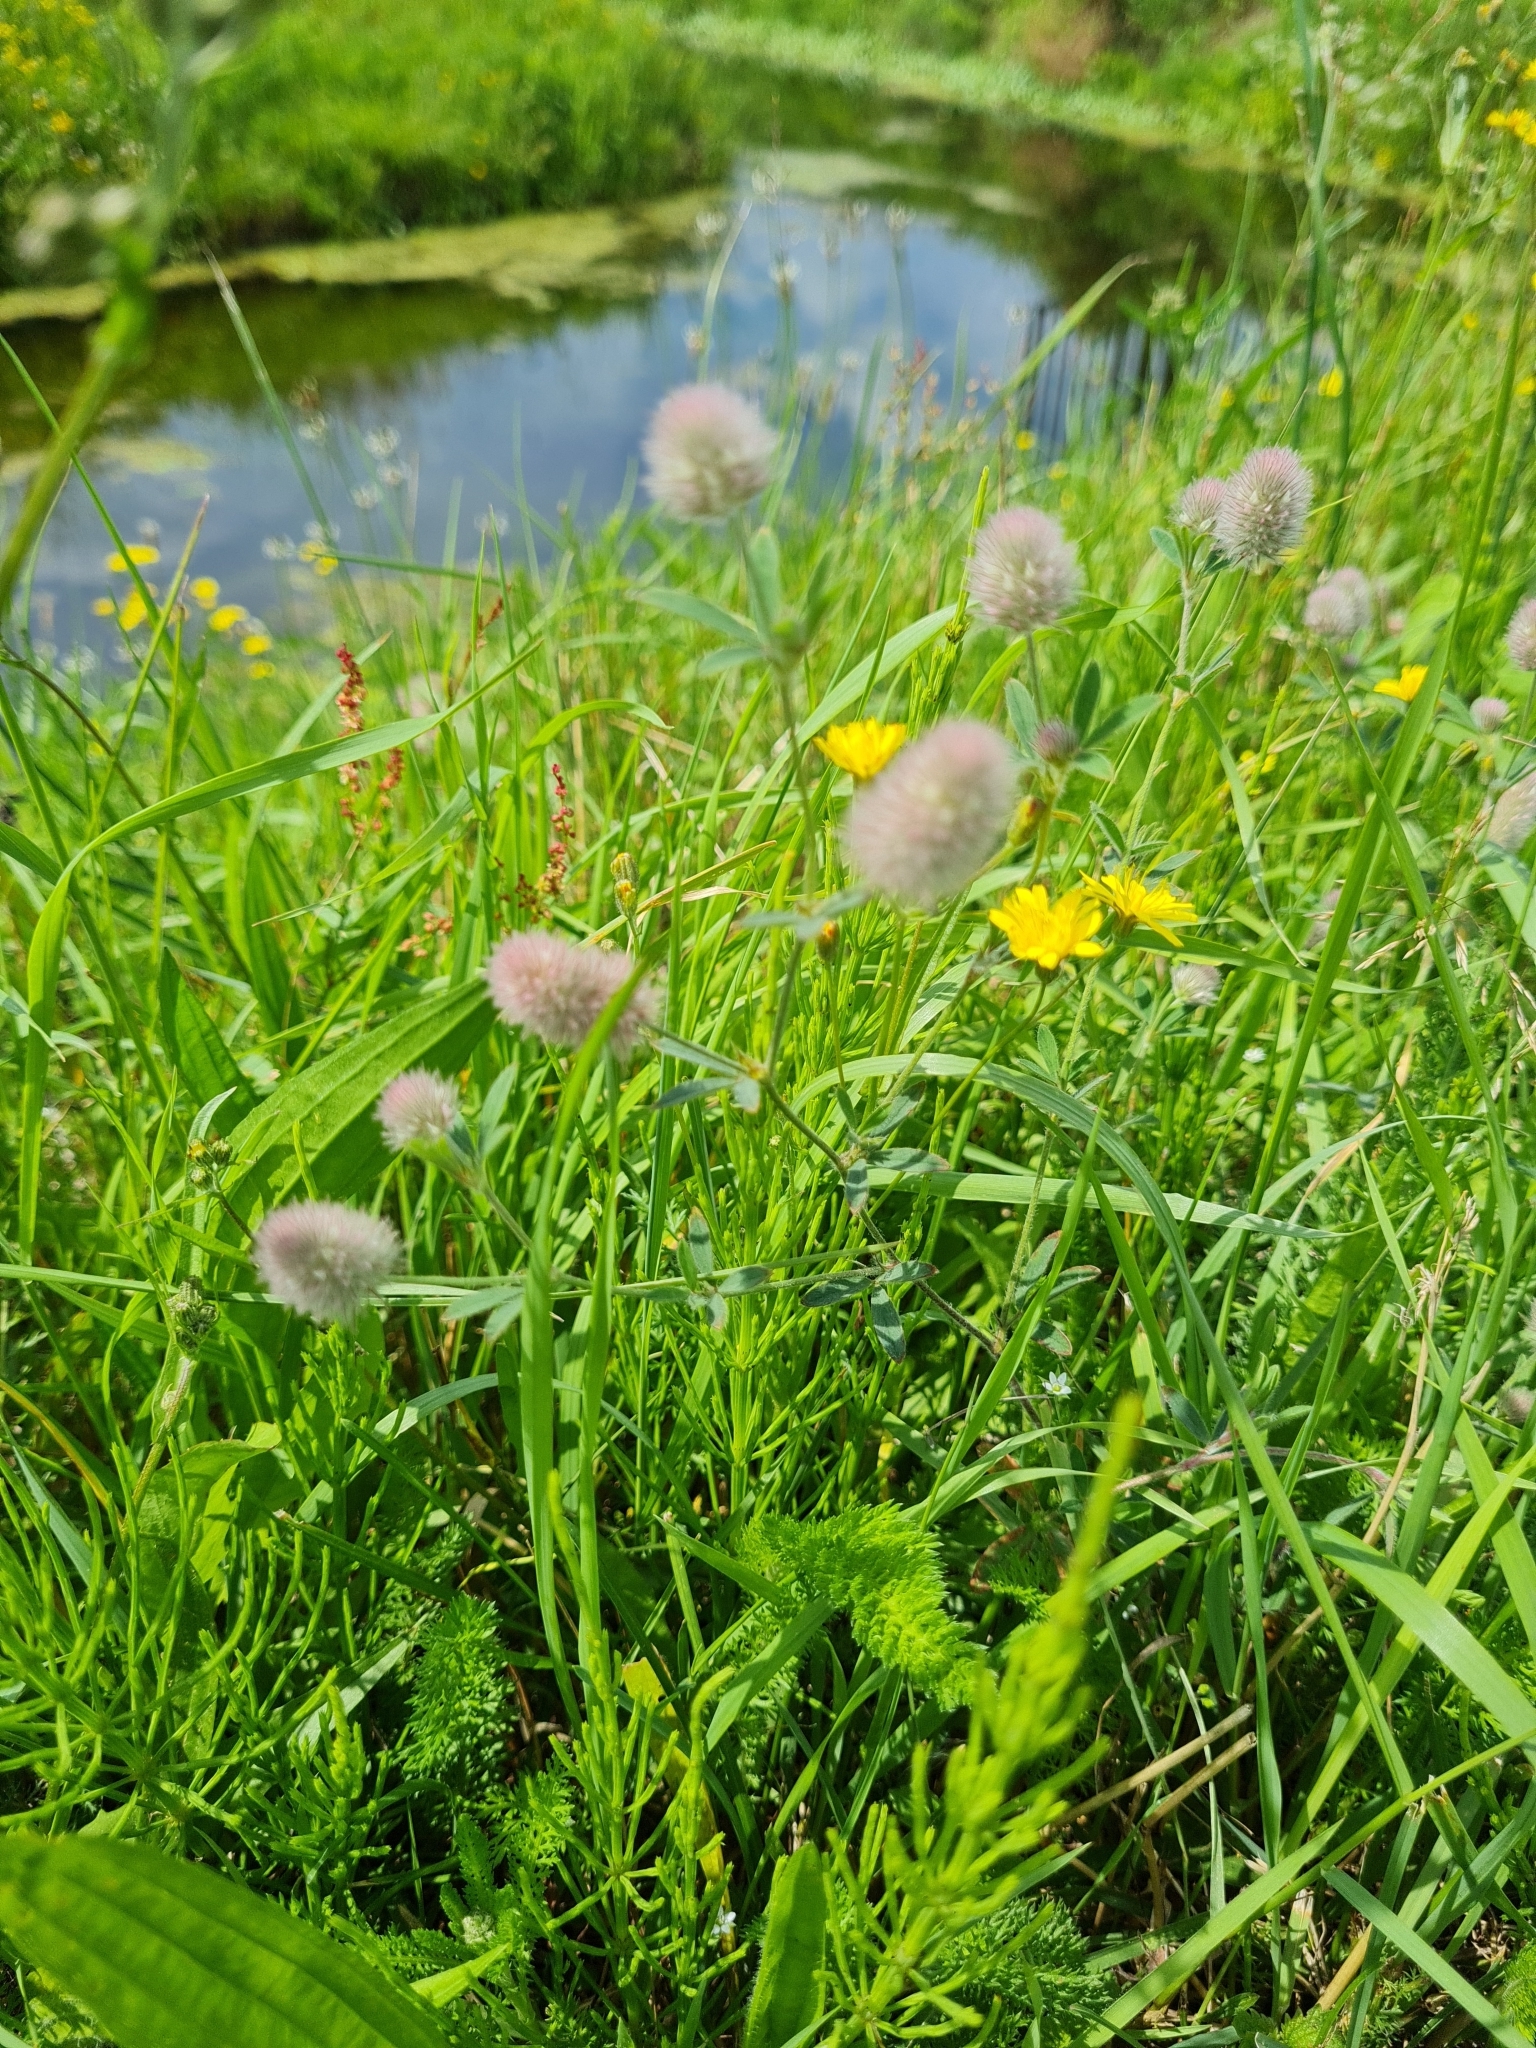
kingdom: Plantae
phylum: Tracheophyta
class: Magnoliopsida
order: Fabales
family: Fabaceae
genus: Trifolium
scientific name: Trifolium arvense
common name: Hare's-foot clover
